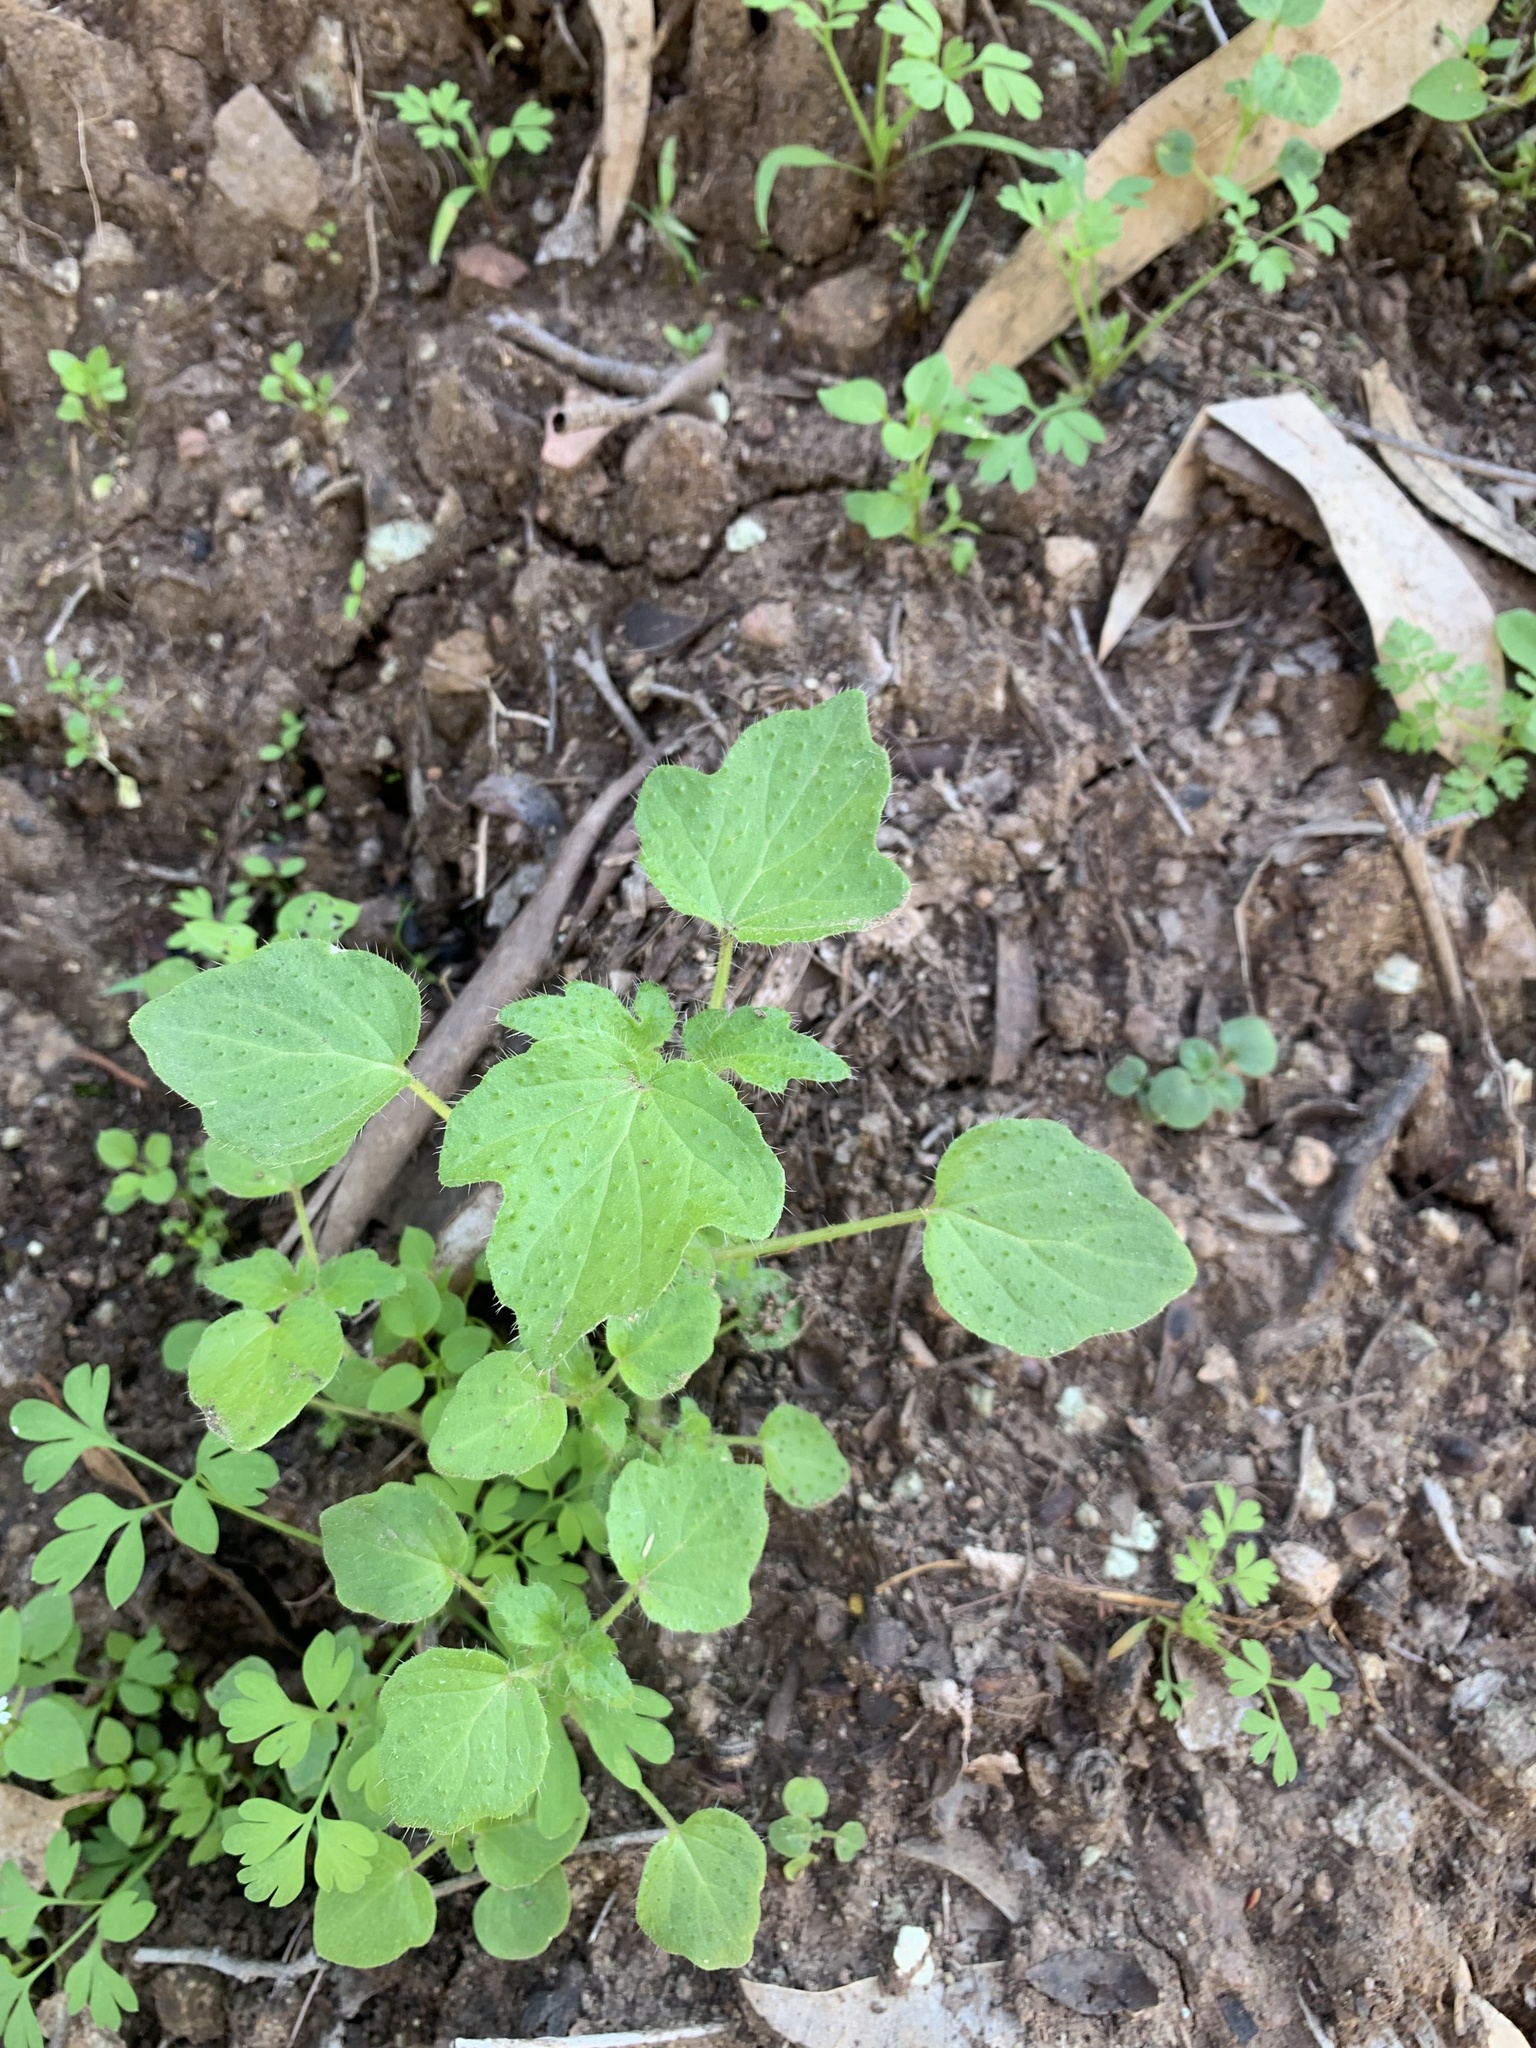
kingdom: Plantae
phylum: Tracheophyta
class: Magnoliopsida
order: Cornales
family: Loasaceae
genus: Loasa
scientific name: Loasa triloba
